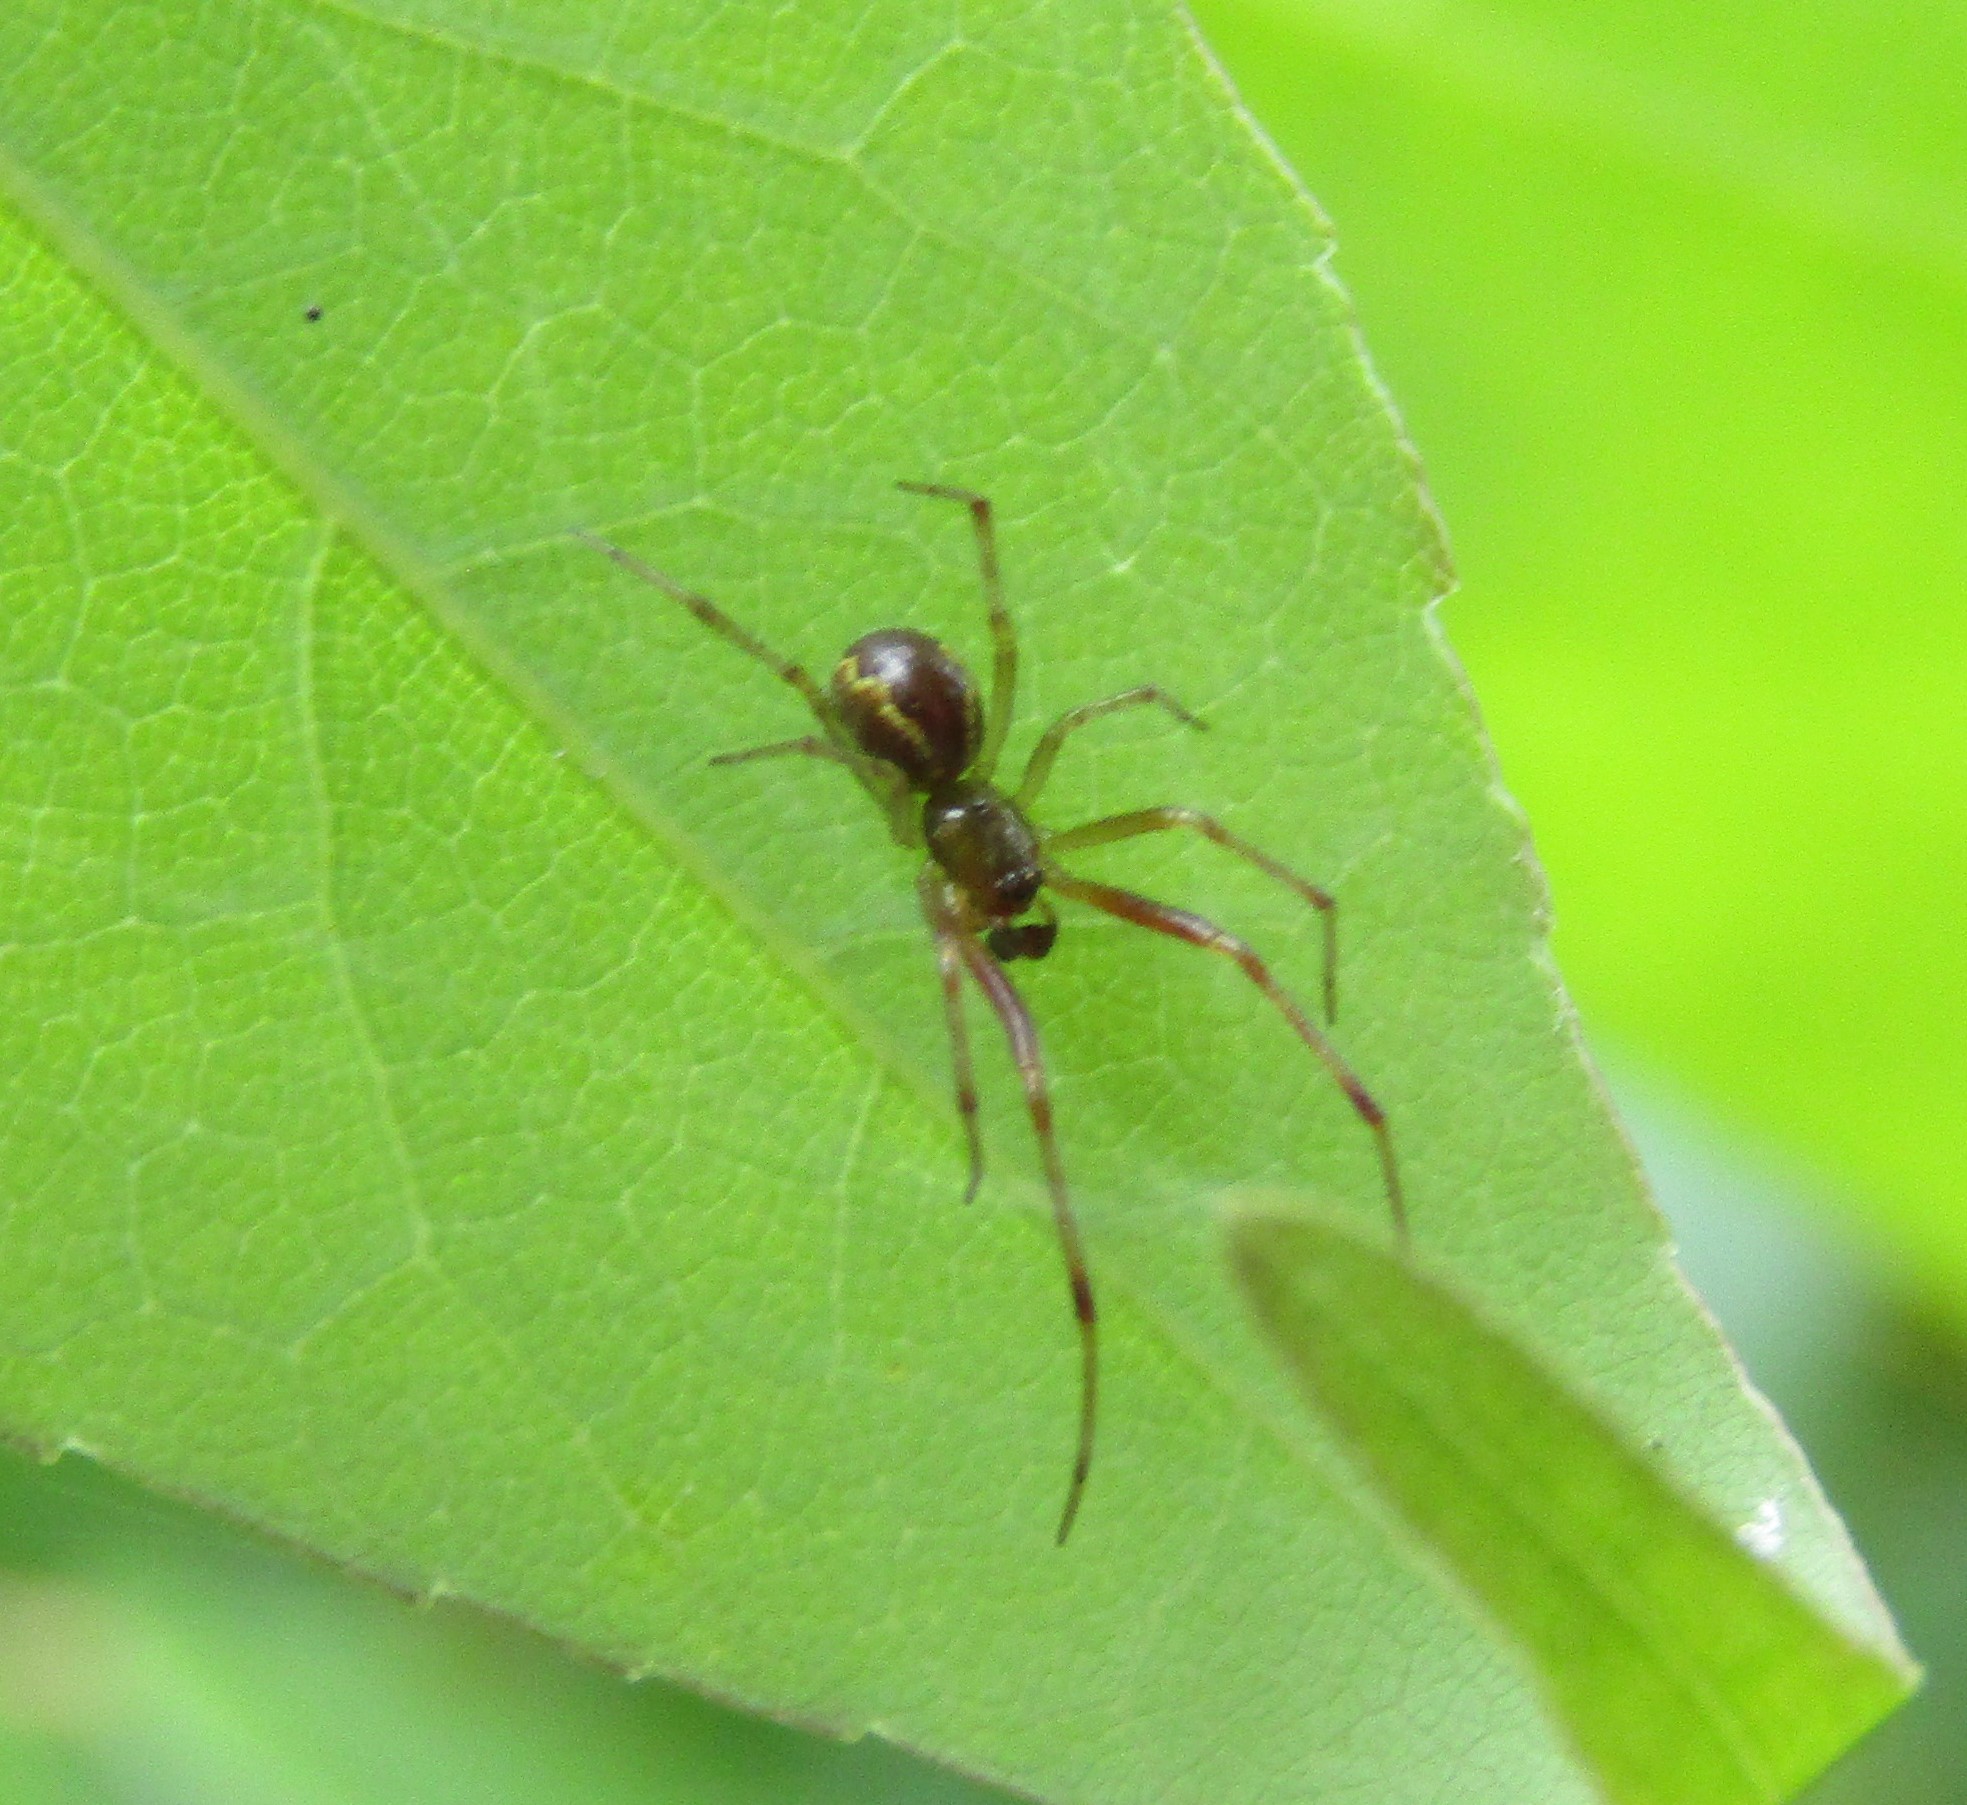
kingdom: Animalia
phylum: Arthropoda
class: Arachnida
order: Araneae
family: Theridiidae
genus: Anelosimus
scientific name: Anelosimus studiosus
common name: Cobweb spiders
